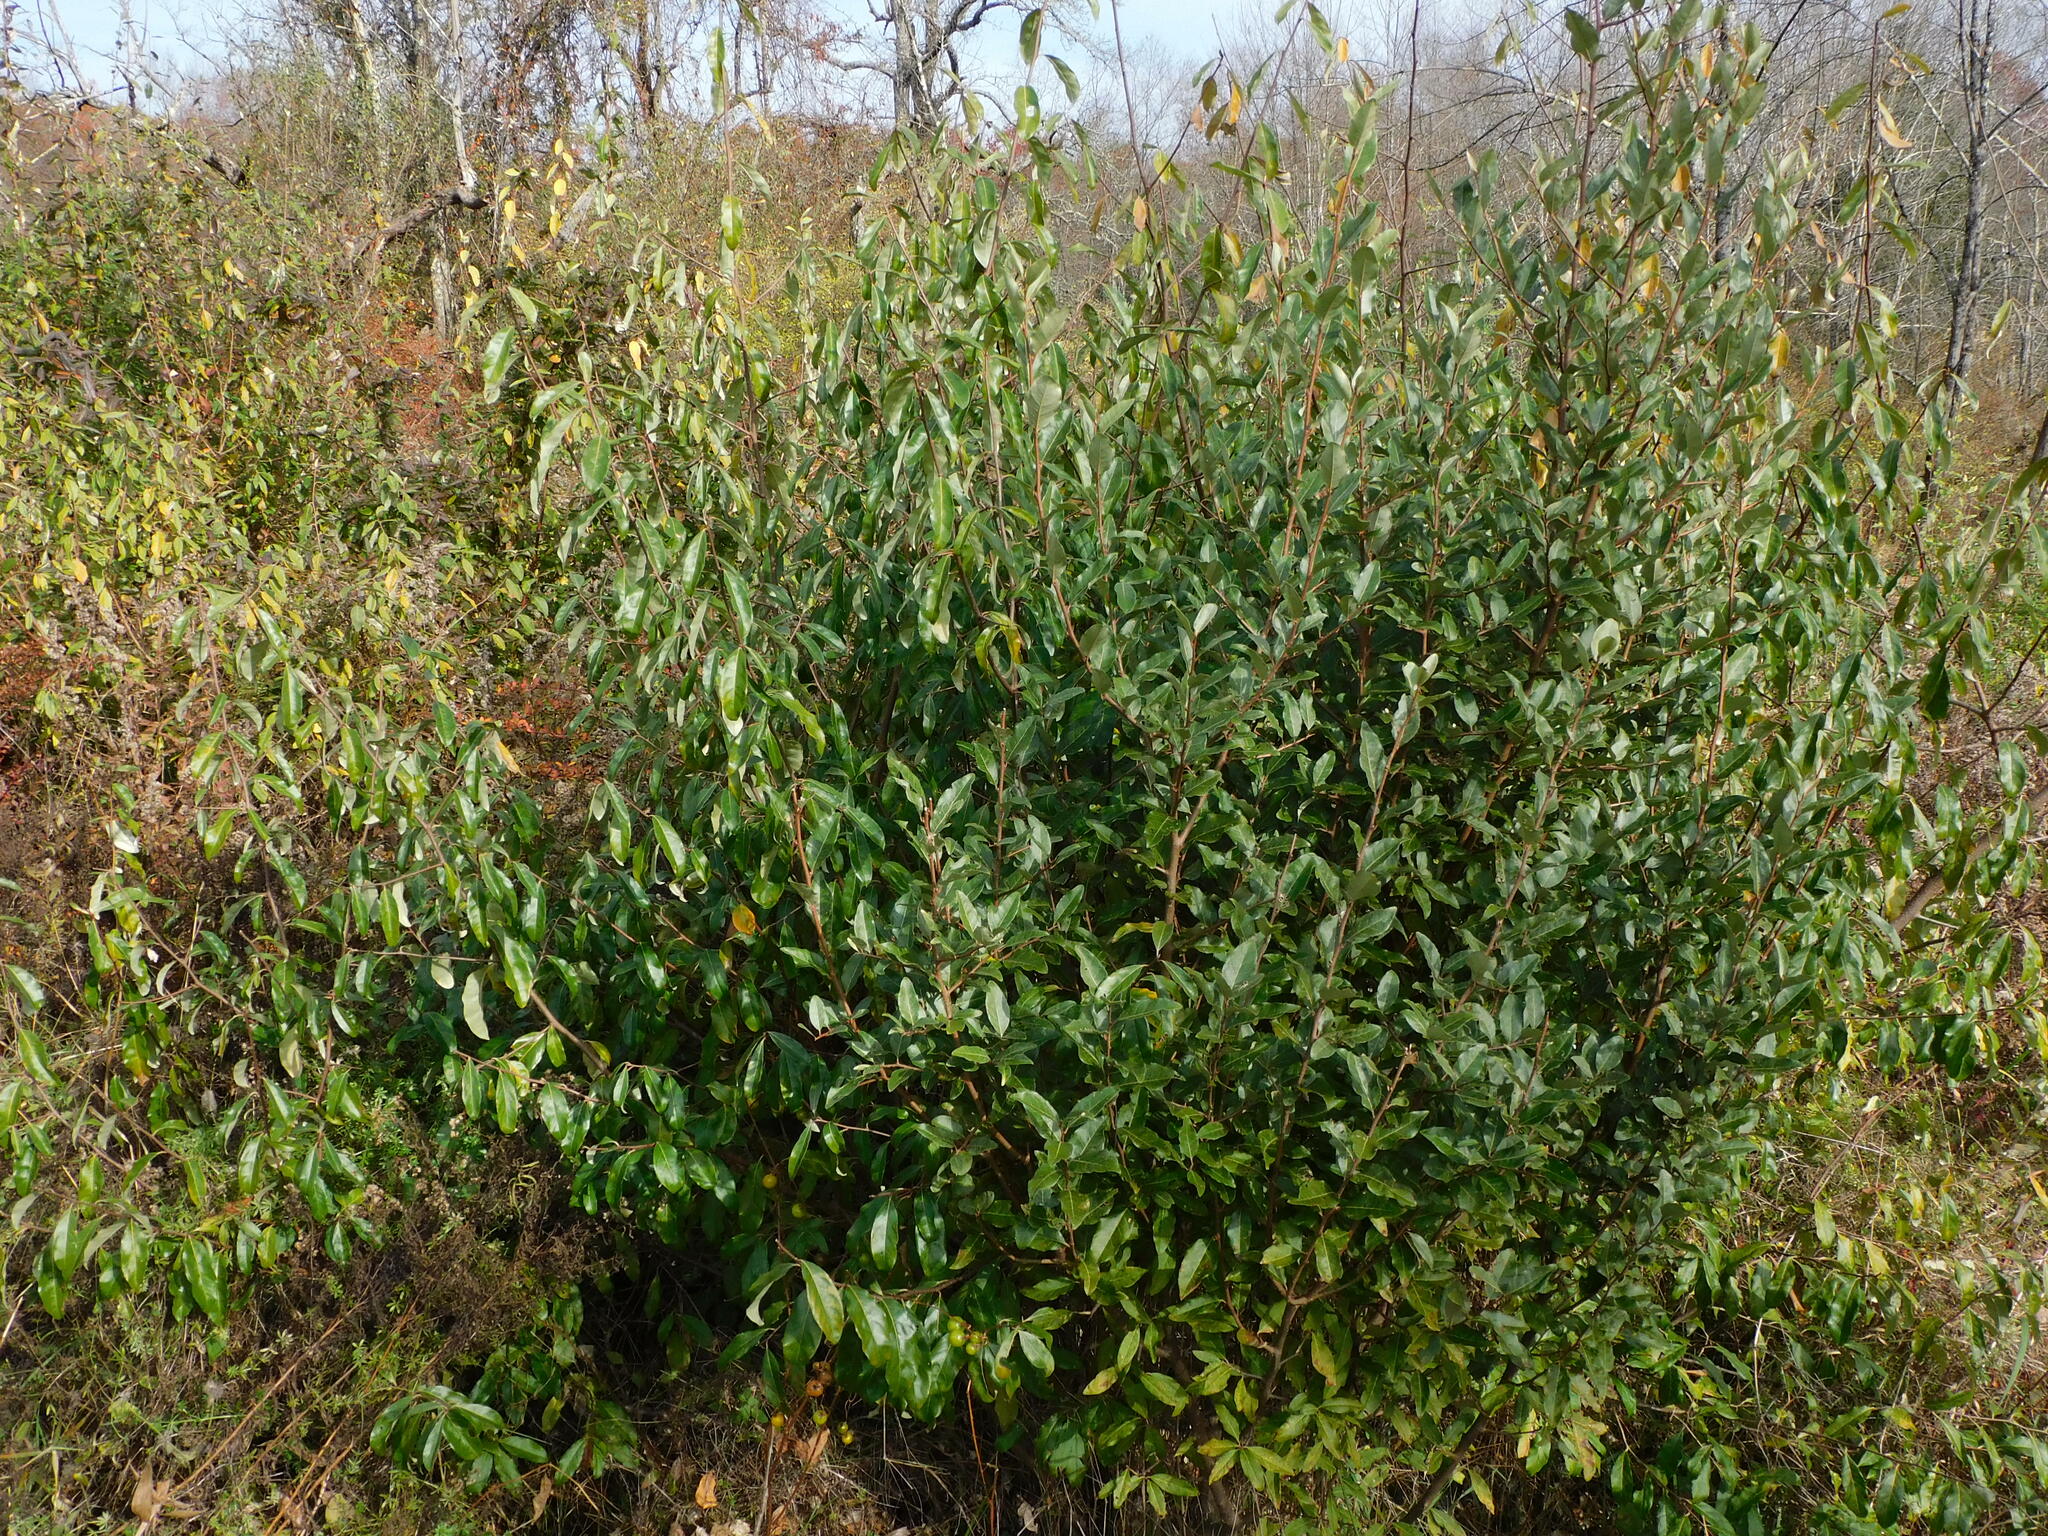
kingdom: Plantae
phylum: Tracheophyta
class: Magnoliopsida
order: Rosales
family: Elaeagnaceae
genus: Elaeagnus
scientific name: Elaeagnus umbellata
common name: Autumn olive
